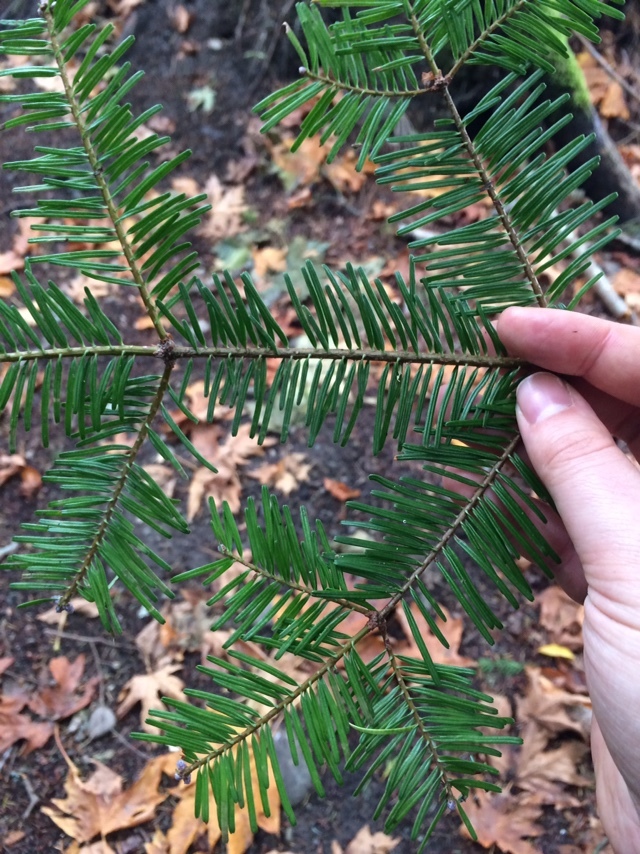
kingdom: Plantae
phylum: Tracheophyta
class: Pinopsida
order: Pinales
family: Pinaceae
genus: Abies
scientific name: Abies grandis
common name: Giant fir
